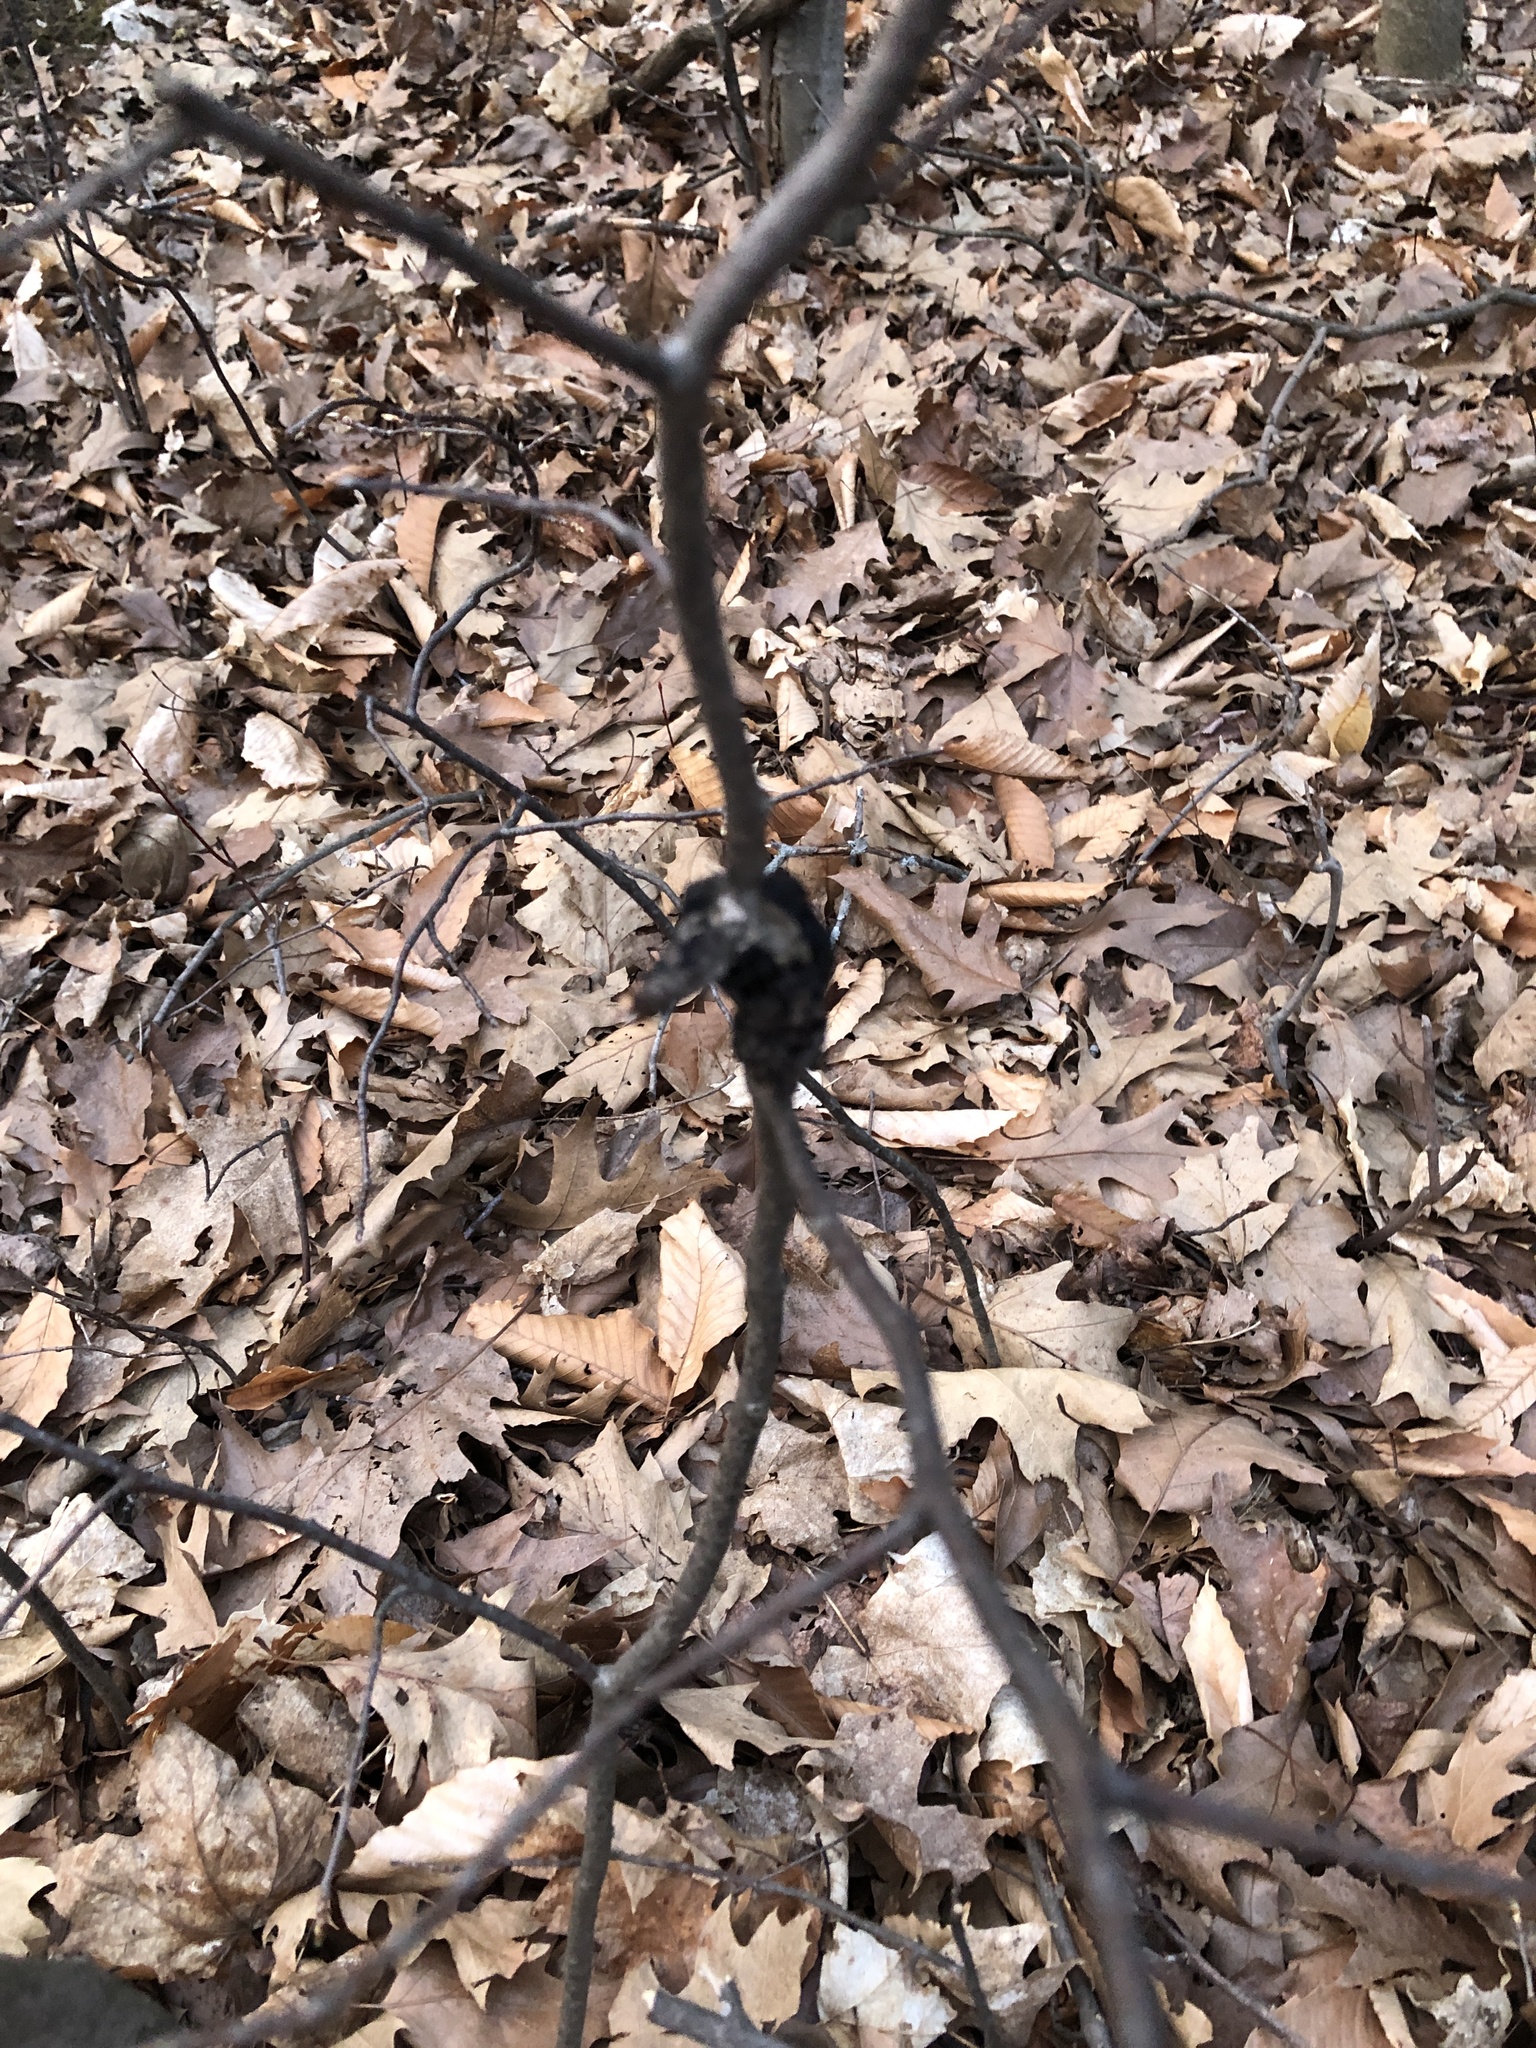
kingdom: Fungi
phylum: Ascomycota
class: Dothideomycetes
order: Venturiales
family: Venturiaceae
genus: Apiosporina
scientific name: Apiosporina morbosa
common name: Black knot
